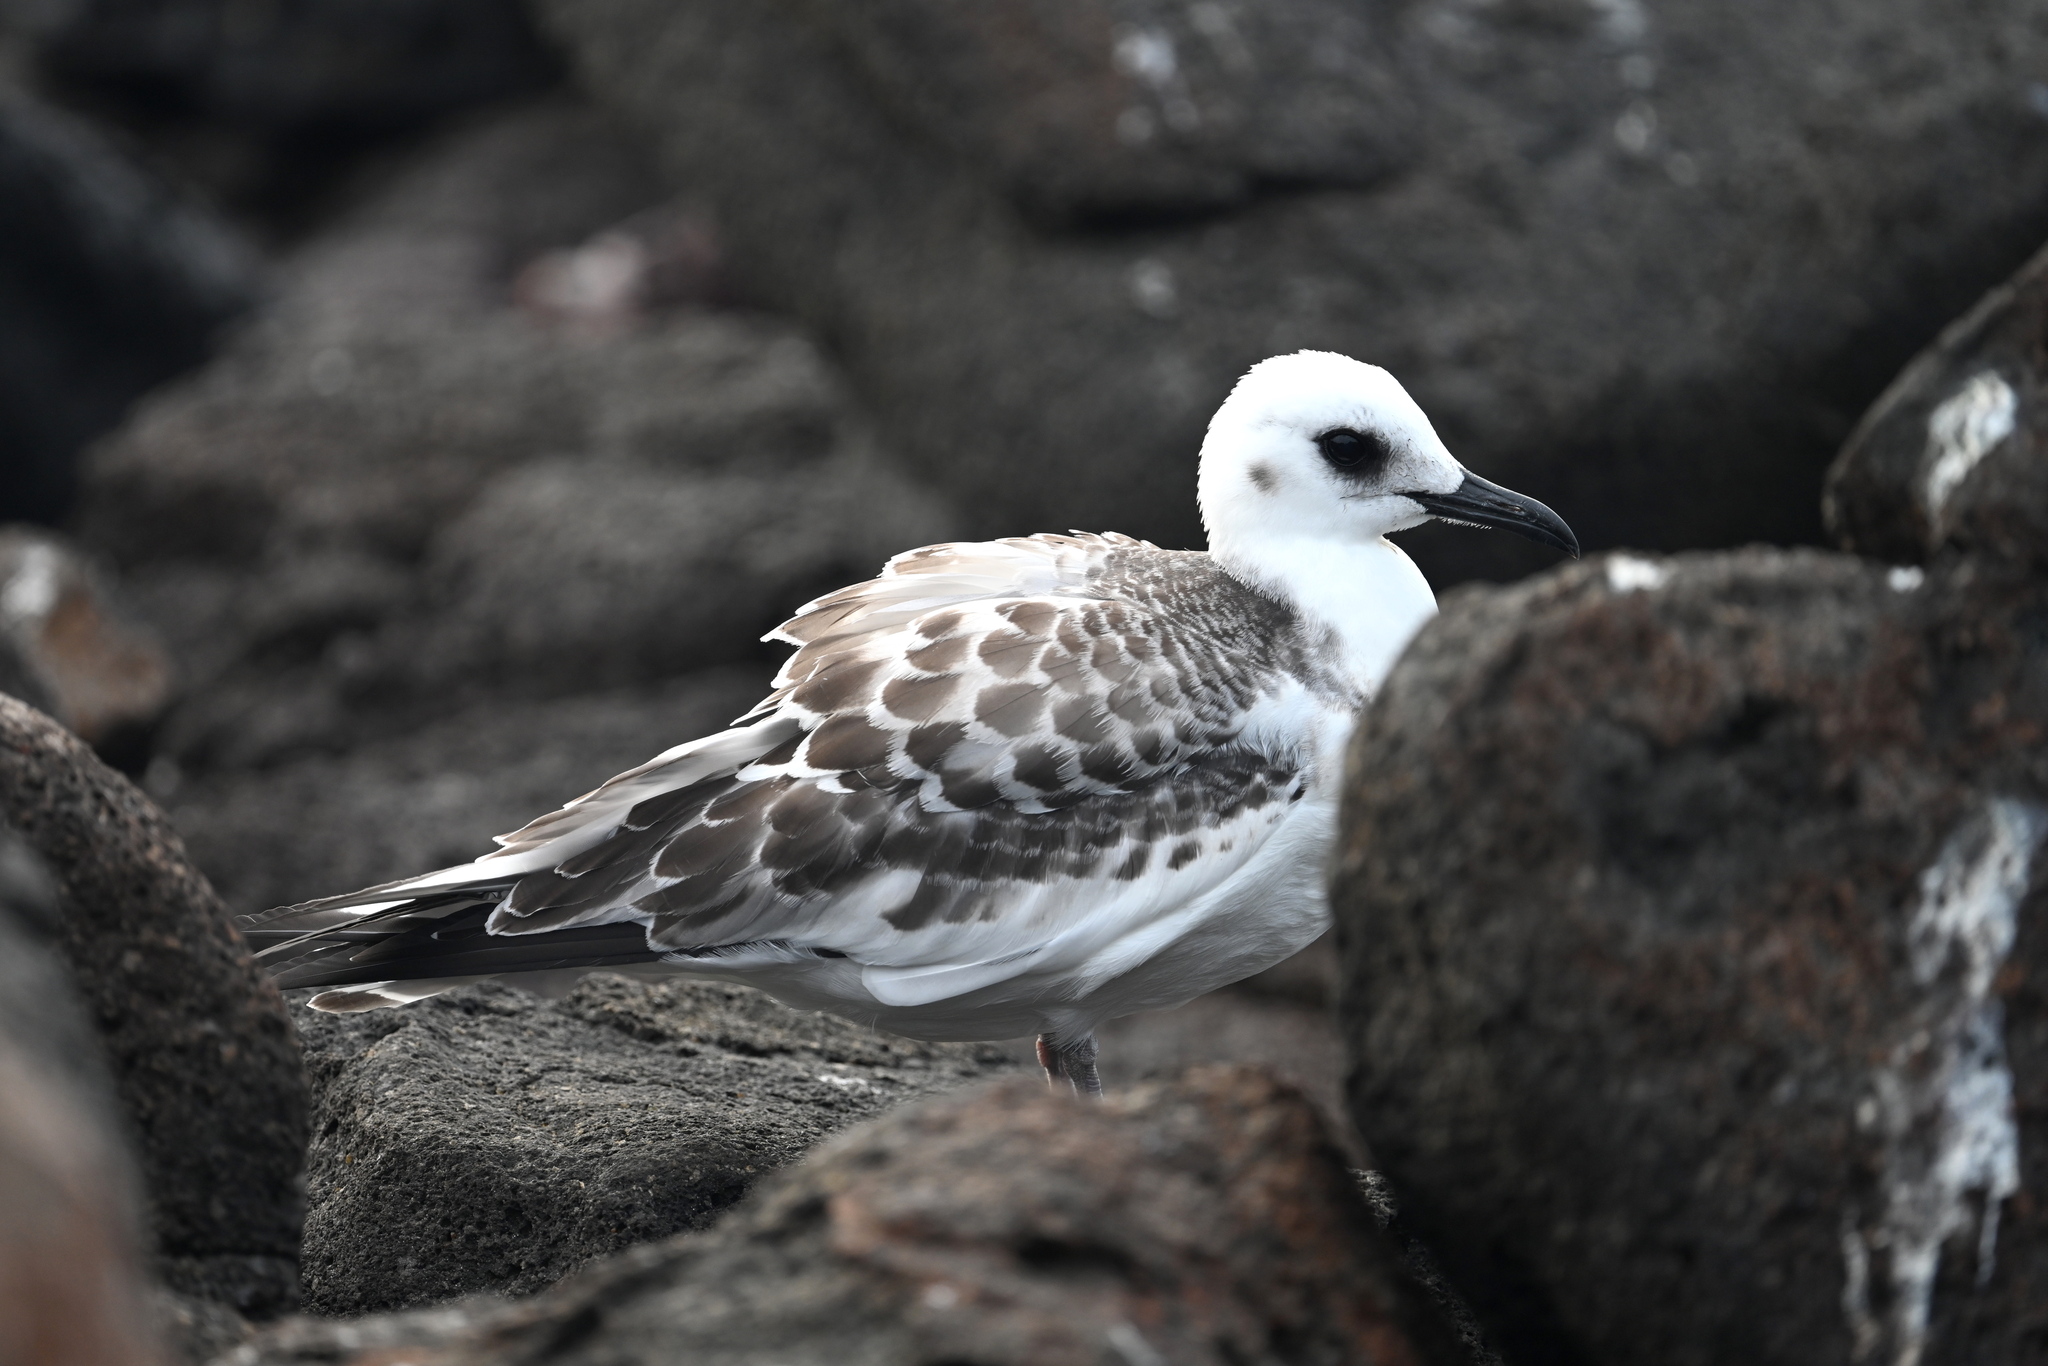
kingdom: Animalia
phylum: Chordata
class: Aves
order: Charadriiformes
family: Laridae
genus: Creagrus
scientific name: Creagrus furcatus
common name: Swallow-tailed gull
